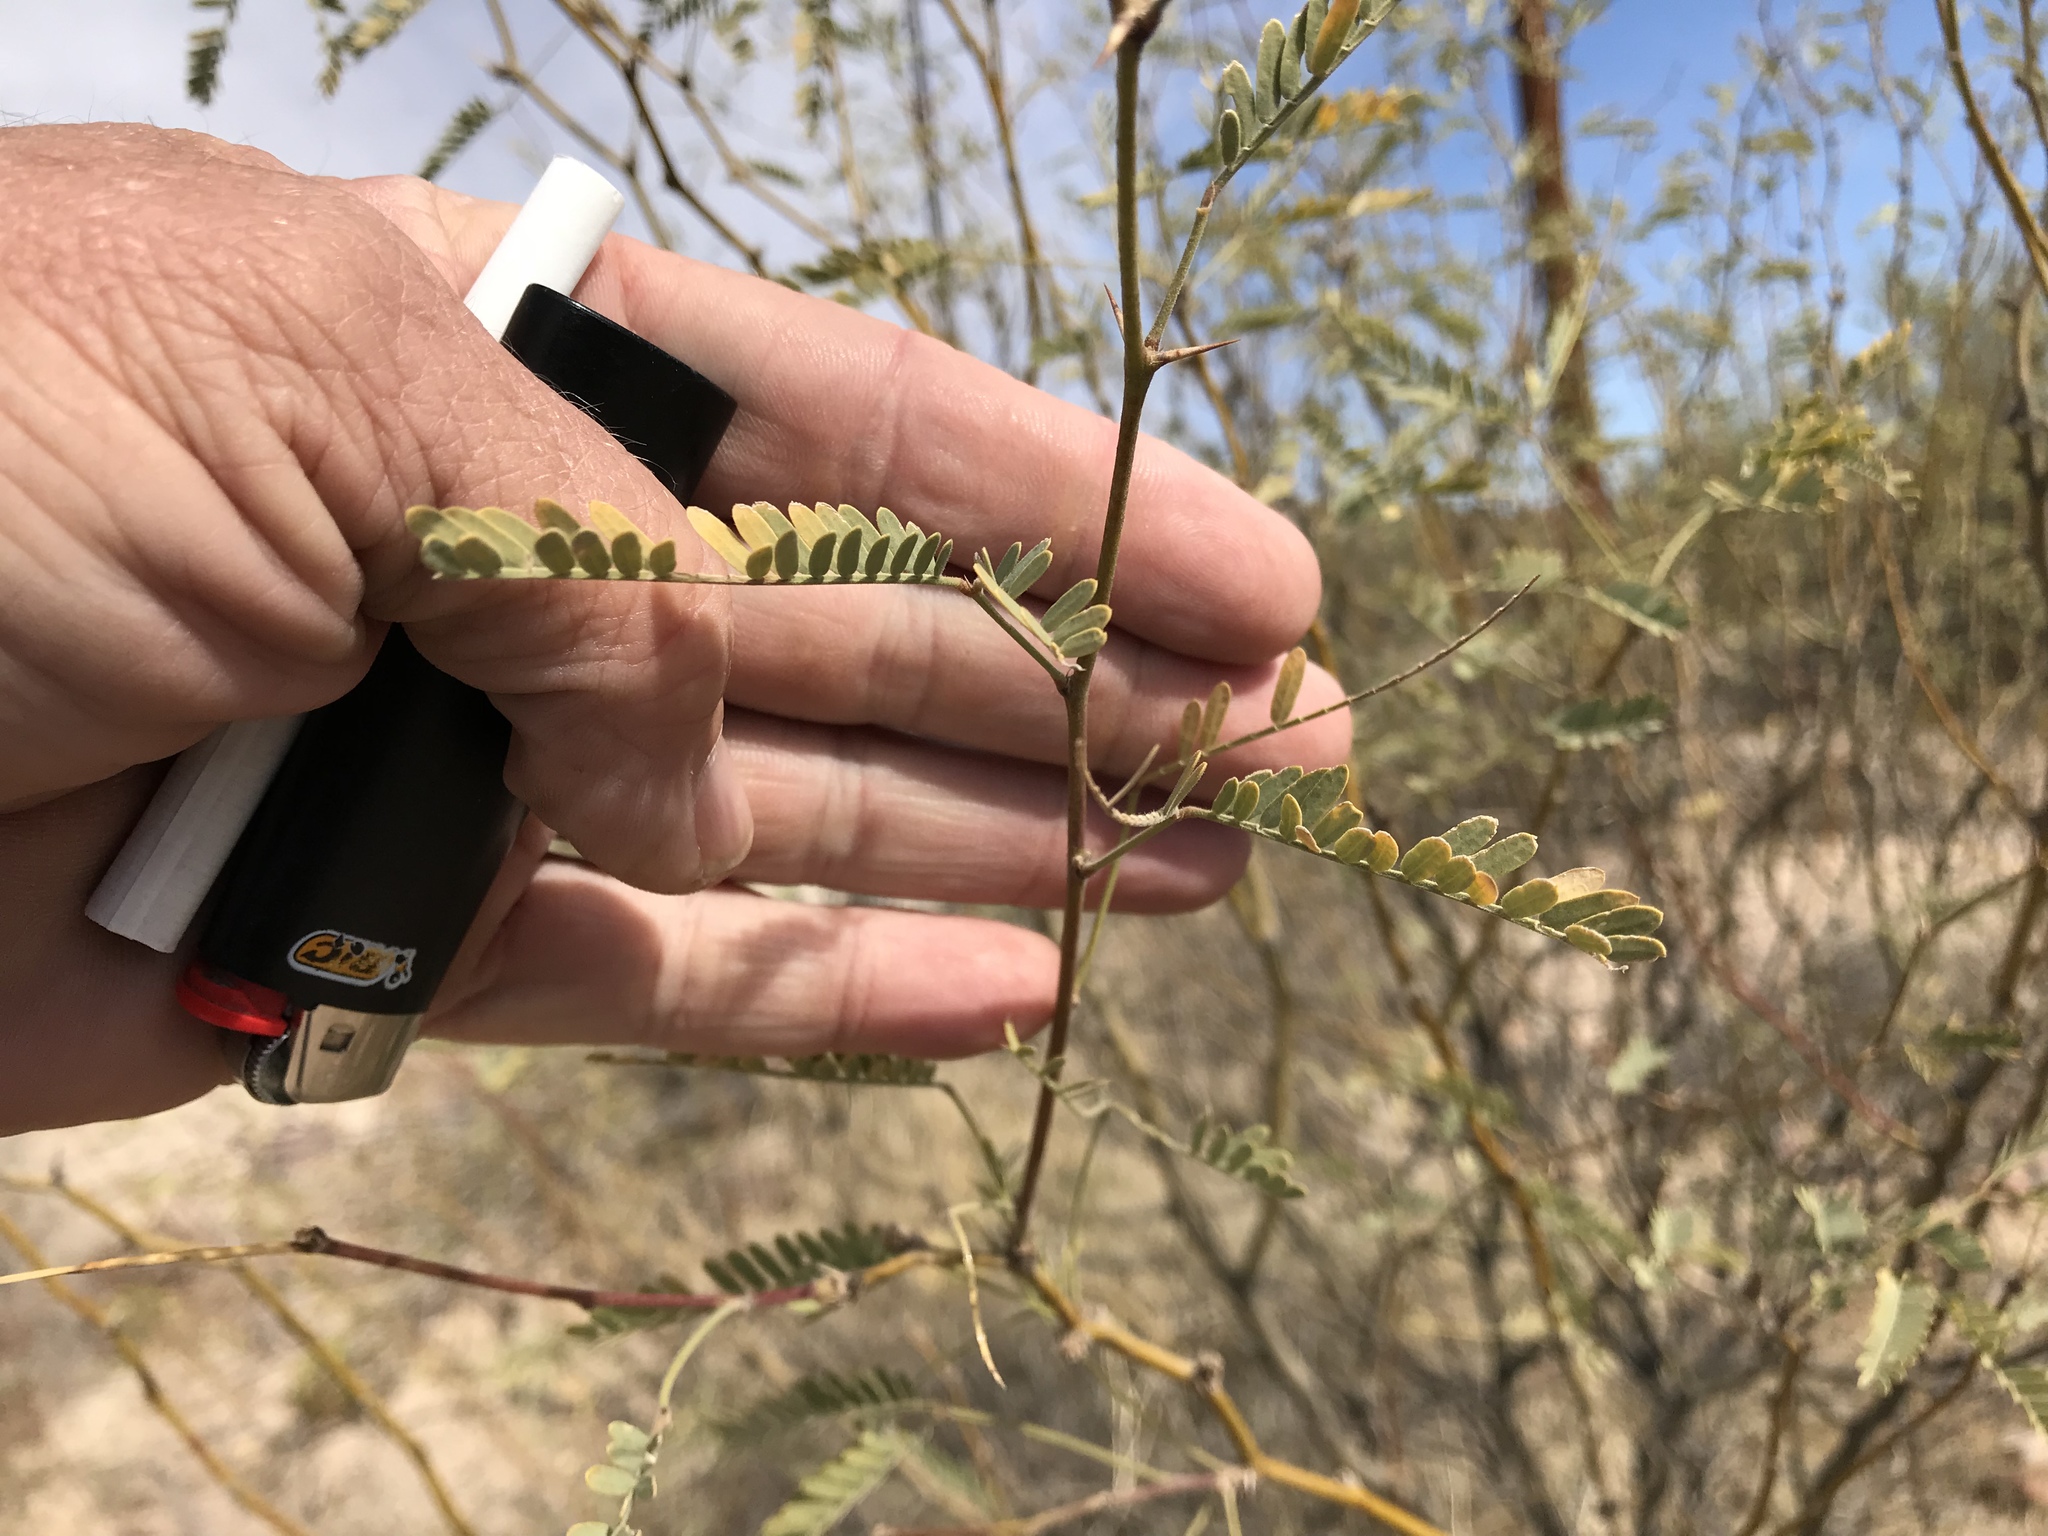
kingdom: Plantae
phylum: Tracheophyta
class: Magnoliopsida
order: Fabales
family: Fabaceae
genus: Prosopis
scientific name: Prosopis velutina
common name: Velvet mesquite
